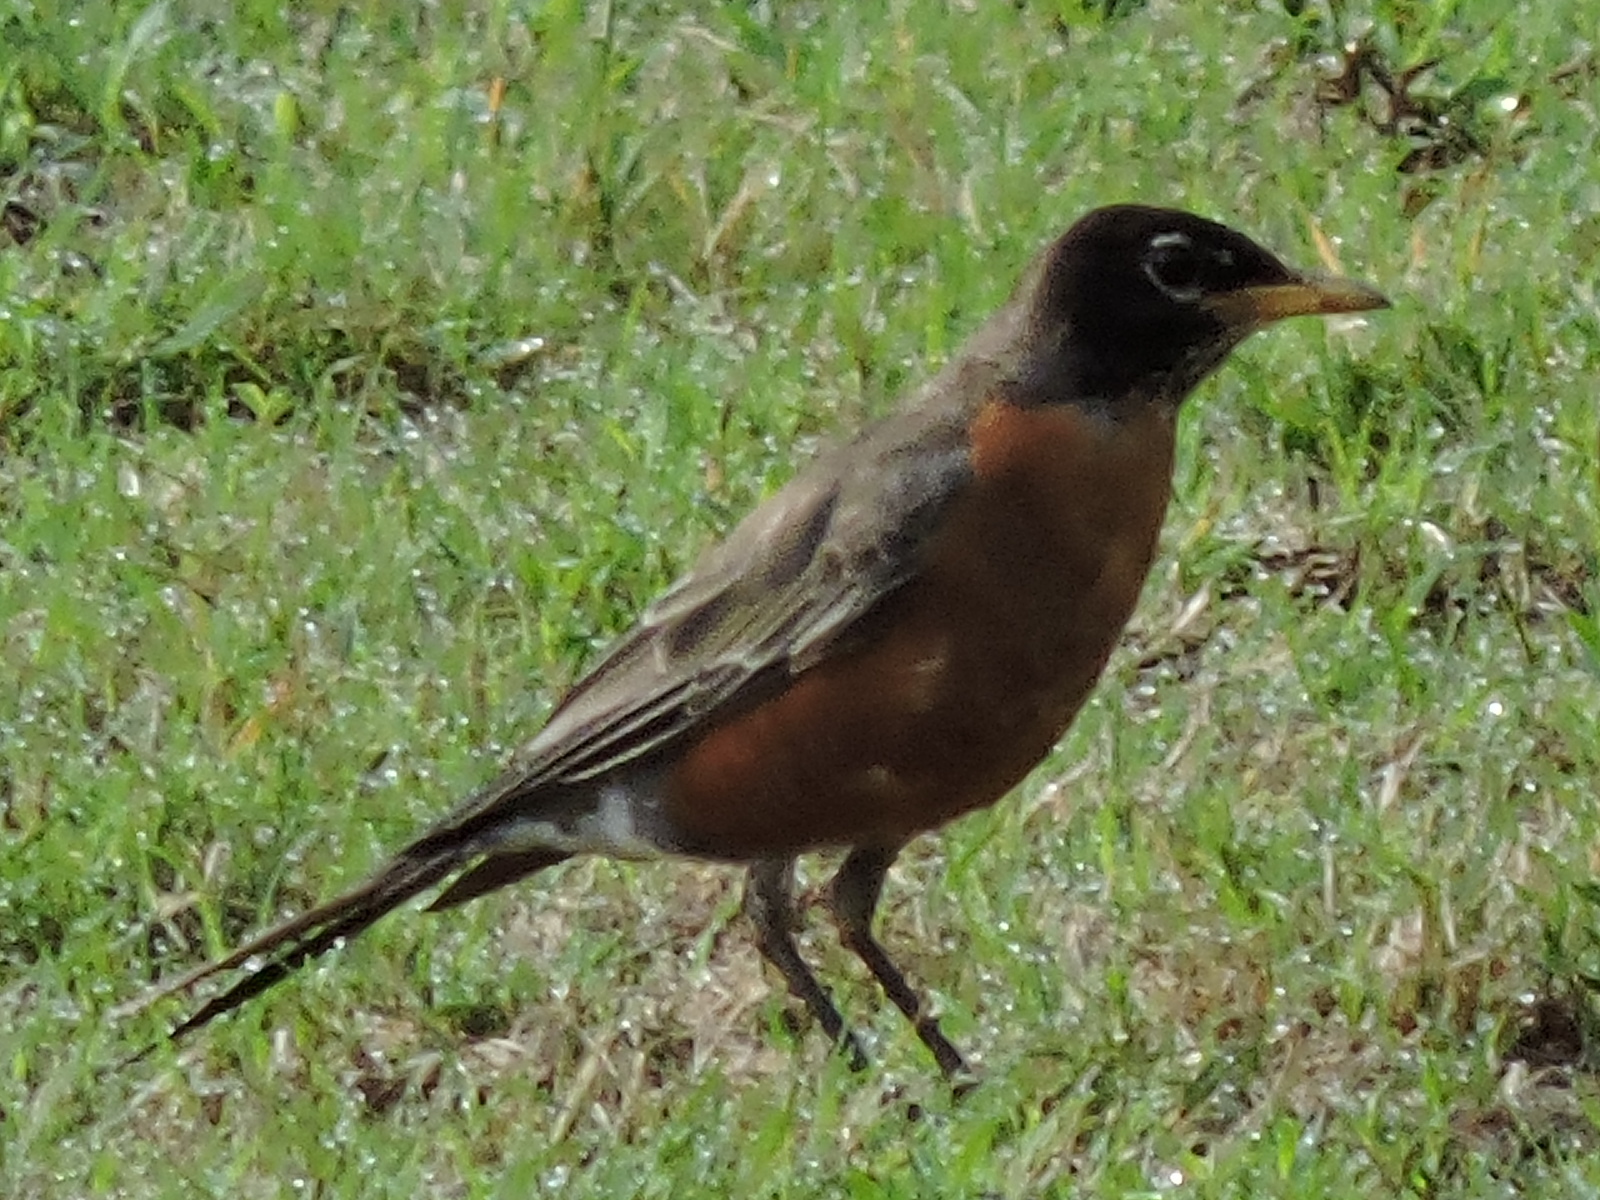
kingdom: Animalia
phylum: Chordata
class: Aves
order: Passeriformes
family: Turdidae
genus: Turdus
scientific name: Turdus migratorius
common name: American robin
